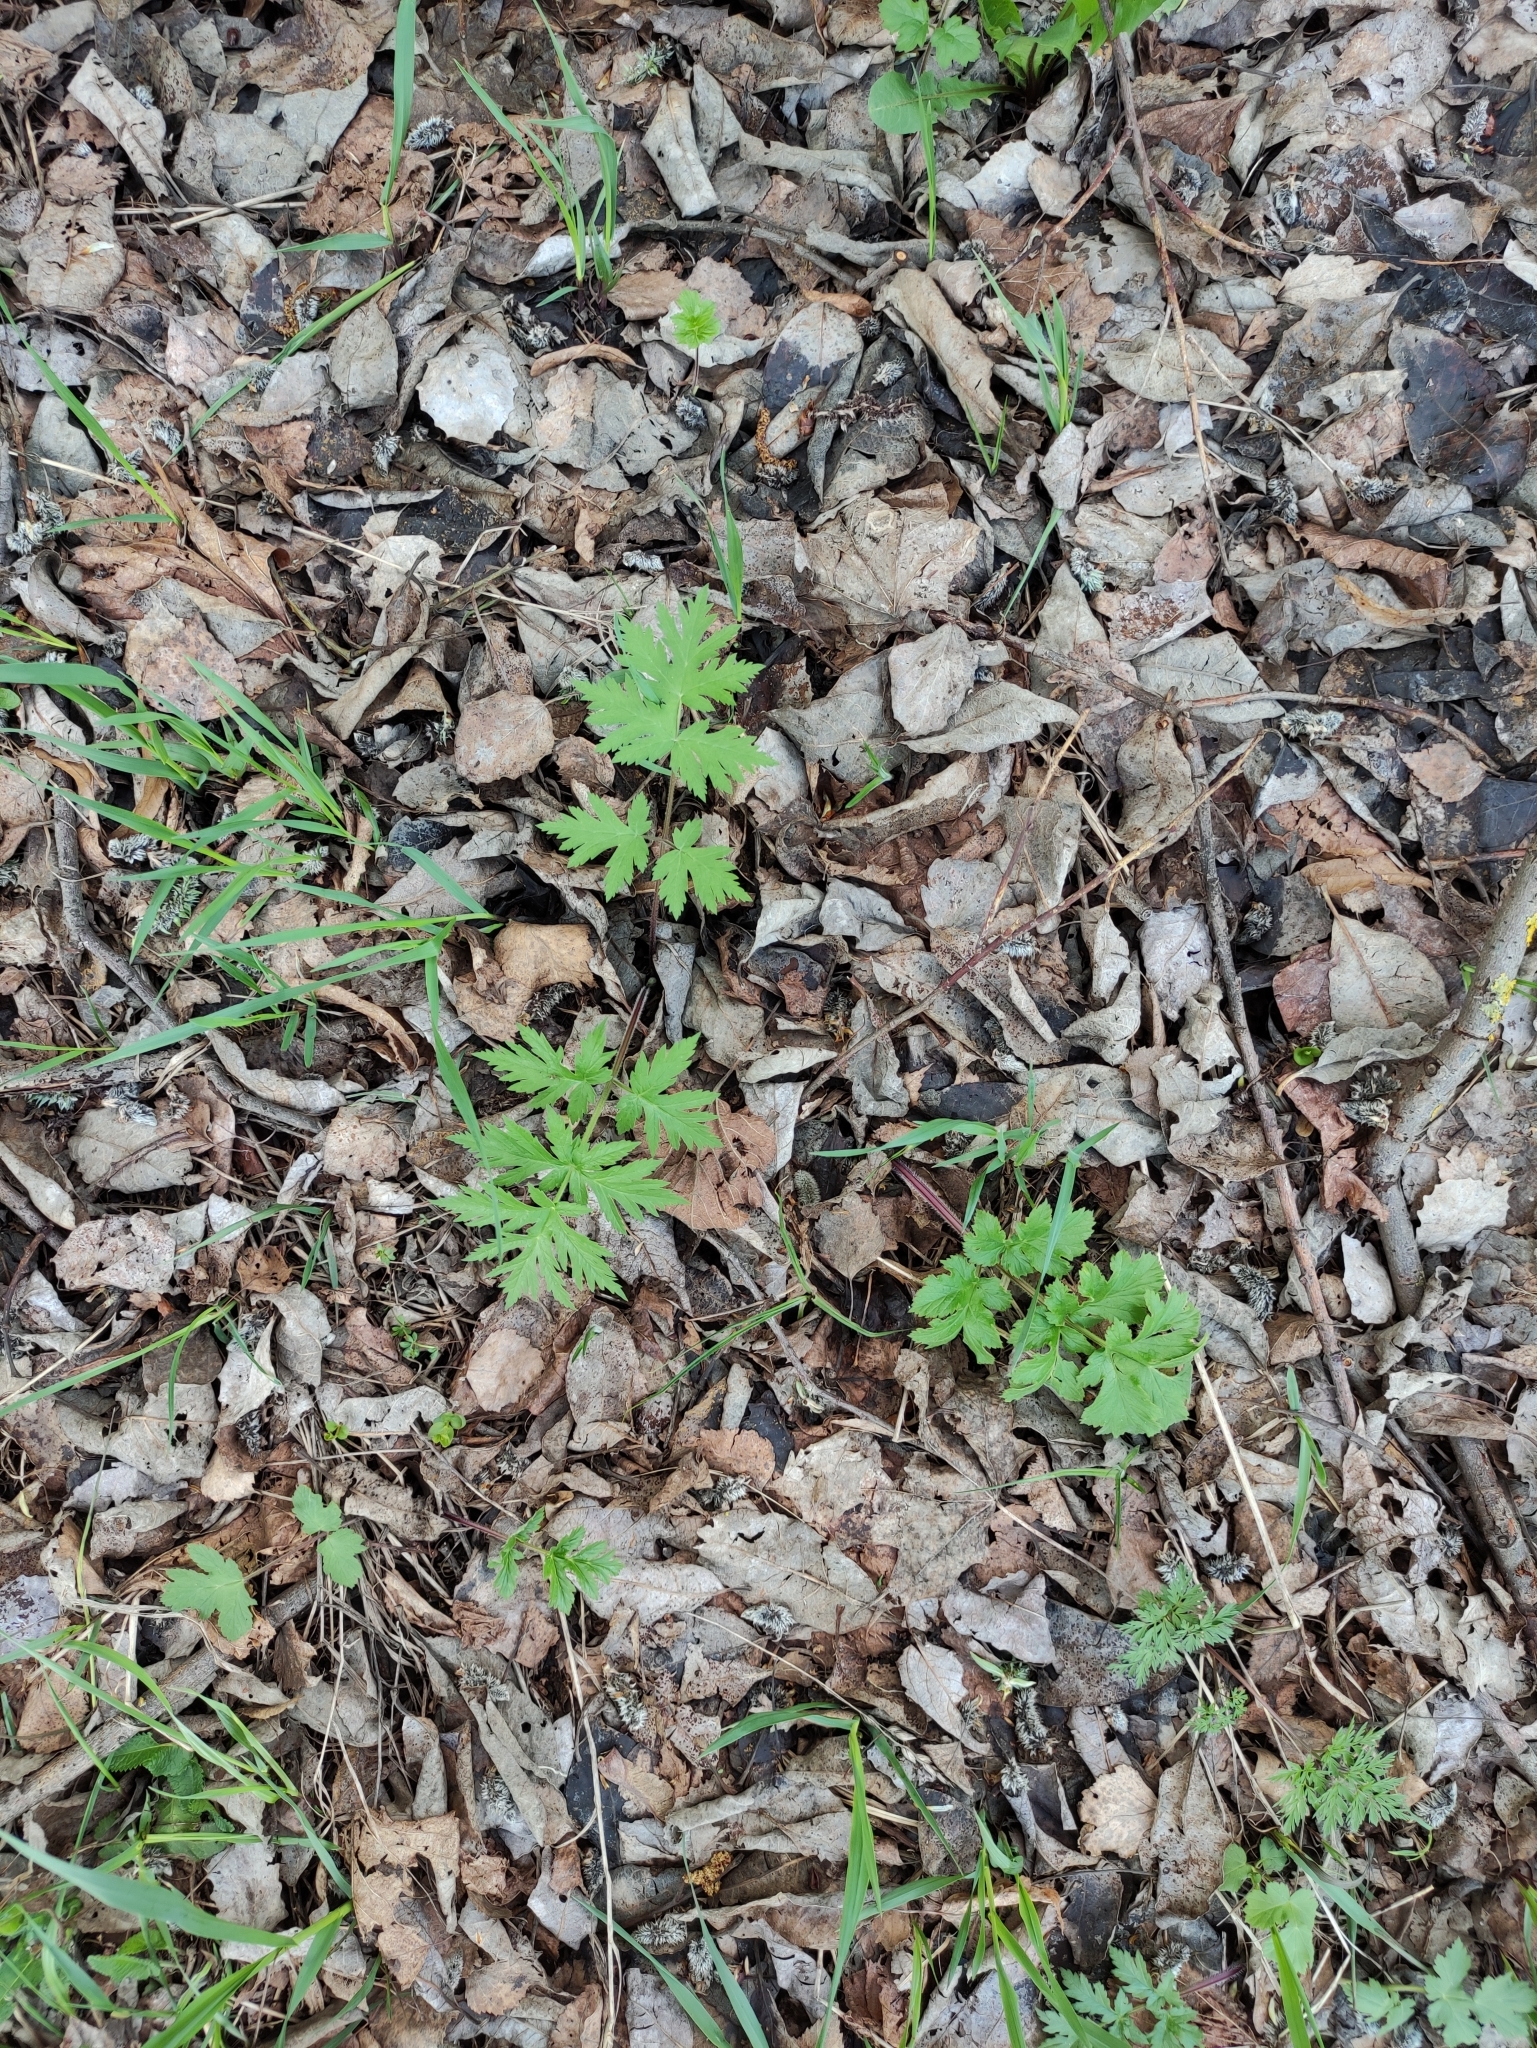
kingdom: Plantae
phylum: Tracheophyta
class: Magnoliopsida
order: Apiales
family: Apiaceae
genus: Heracleum
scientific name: Heracleum sphondylium
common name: Hogweed
